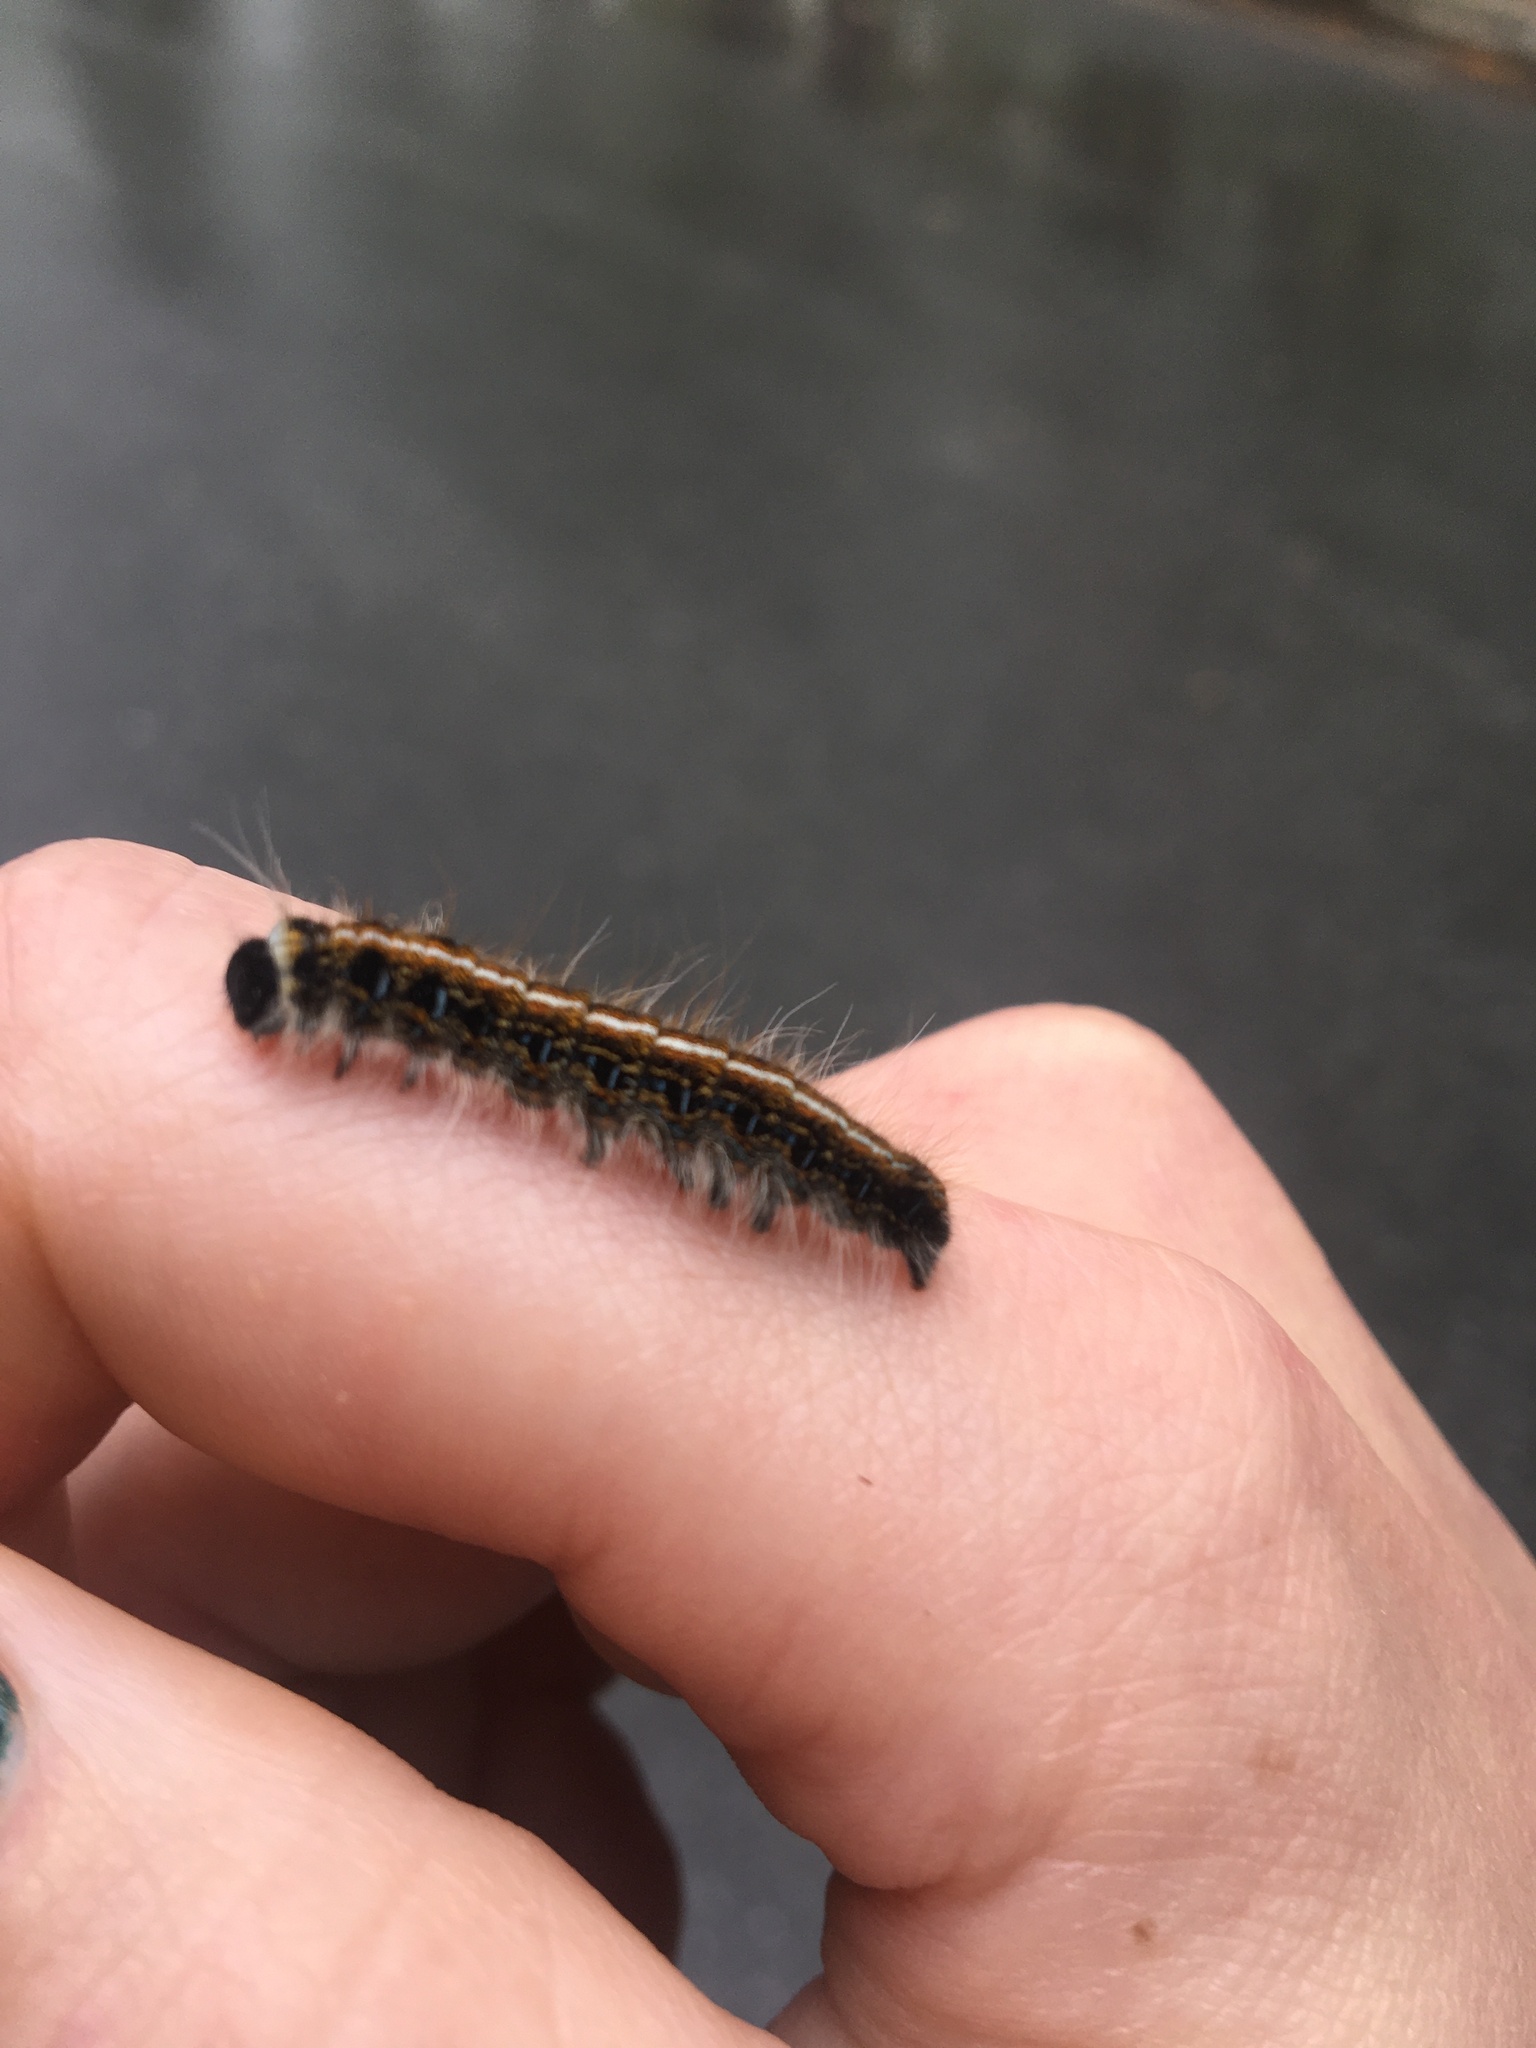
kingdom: Animalia
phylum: Arthropoda
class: Insecta
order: Lepidoptera
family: Lasiocampidae
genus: Malacosoma
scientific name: Malacosoma americana
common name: Eastern tent caterpillar moth
